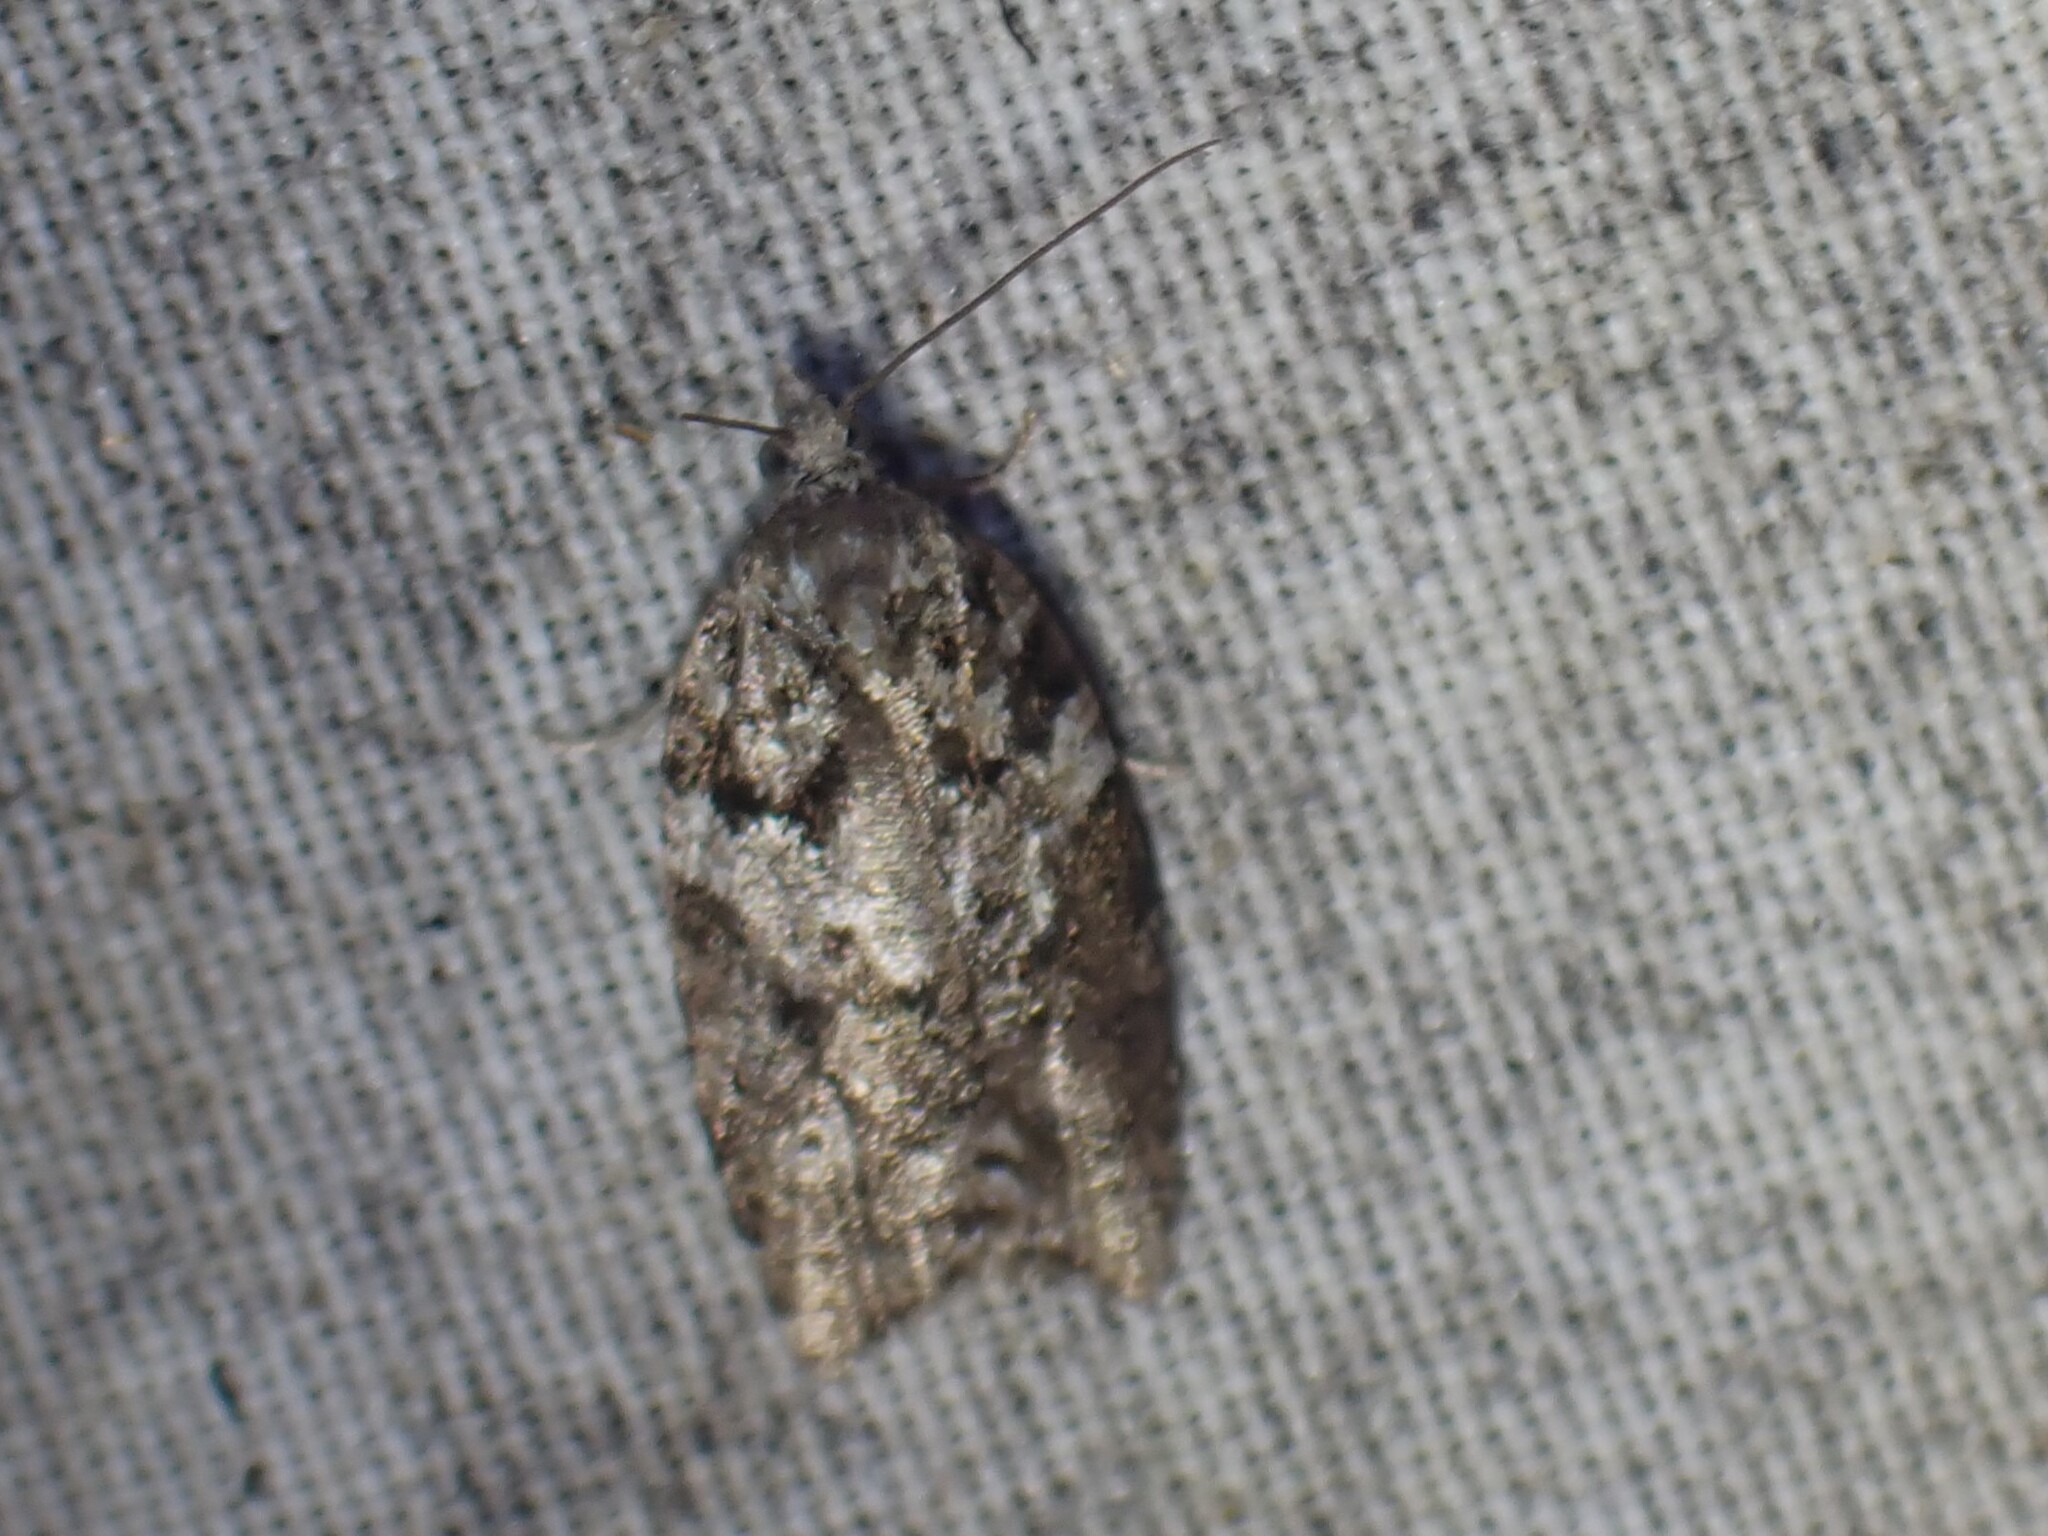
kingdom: Animalia
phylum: Arthropoda
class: Insecta
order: Lepidoptera
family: Tortricidae
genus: Acleris
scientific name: Acleris variana
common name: Eastern black-headed budworm moth
